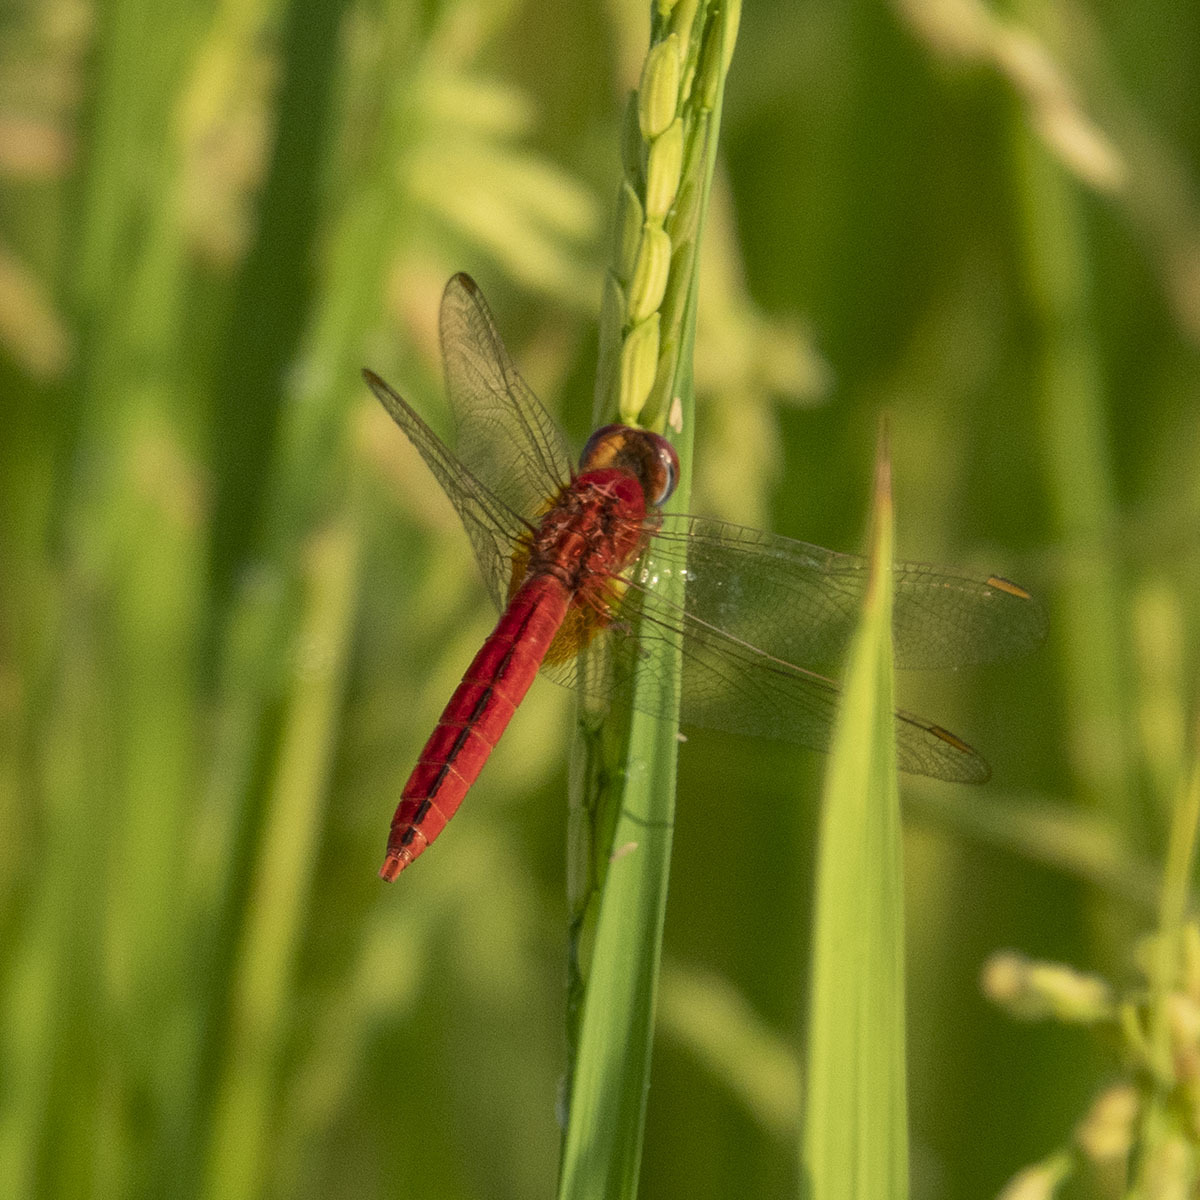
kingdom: Animalia
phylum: Arthropoda
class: Insecta
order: Odonata
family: Libellulidae
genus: Crocothemis
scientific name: Crocothemis servilia
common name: Scarlet skimmer
